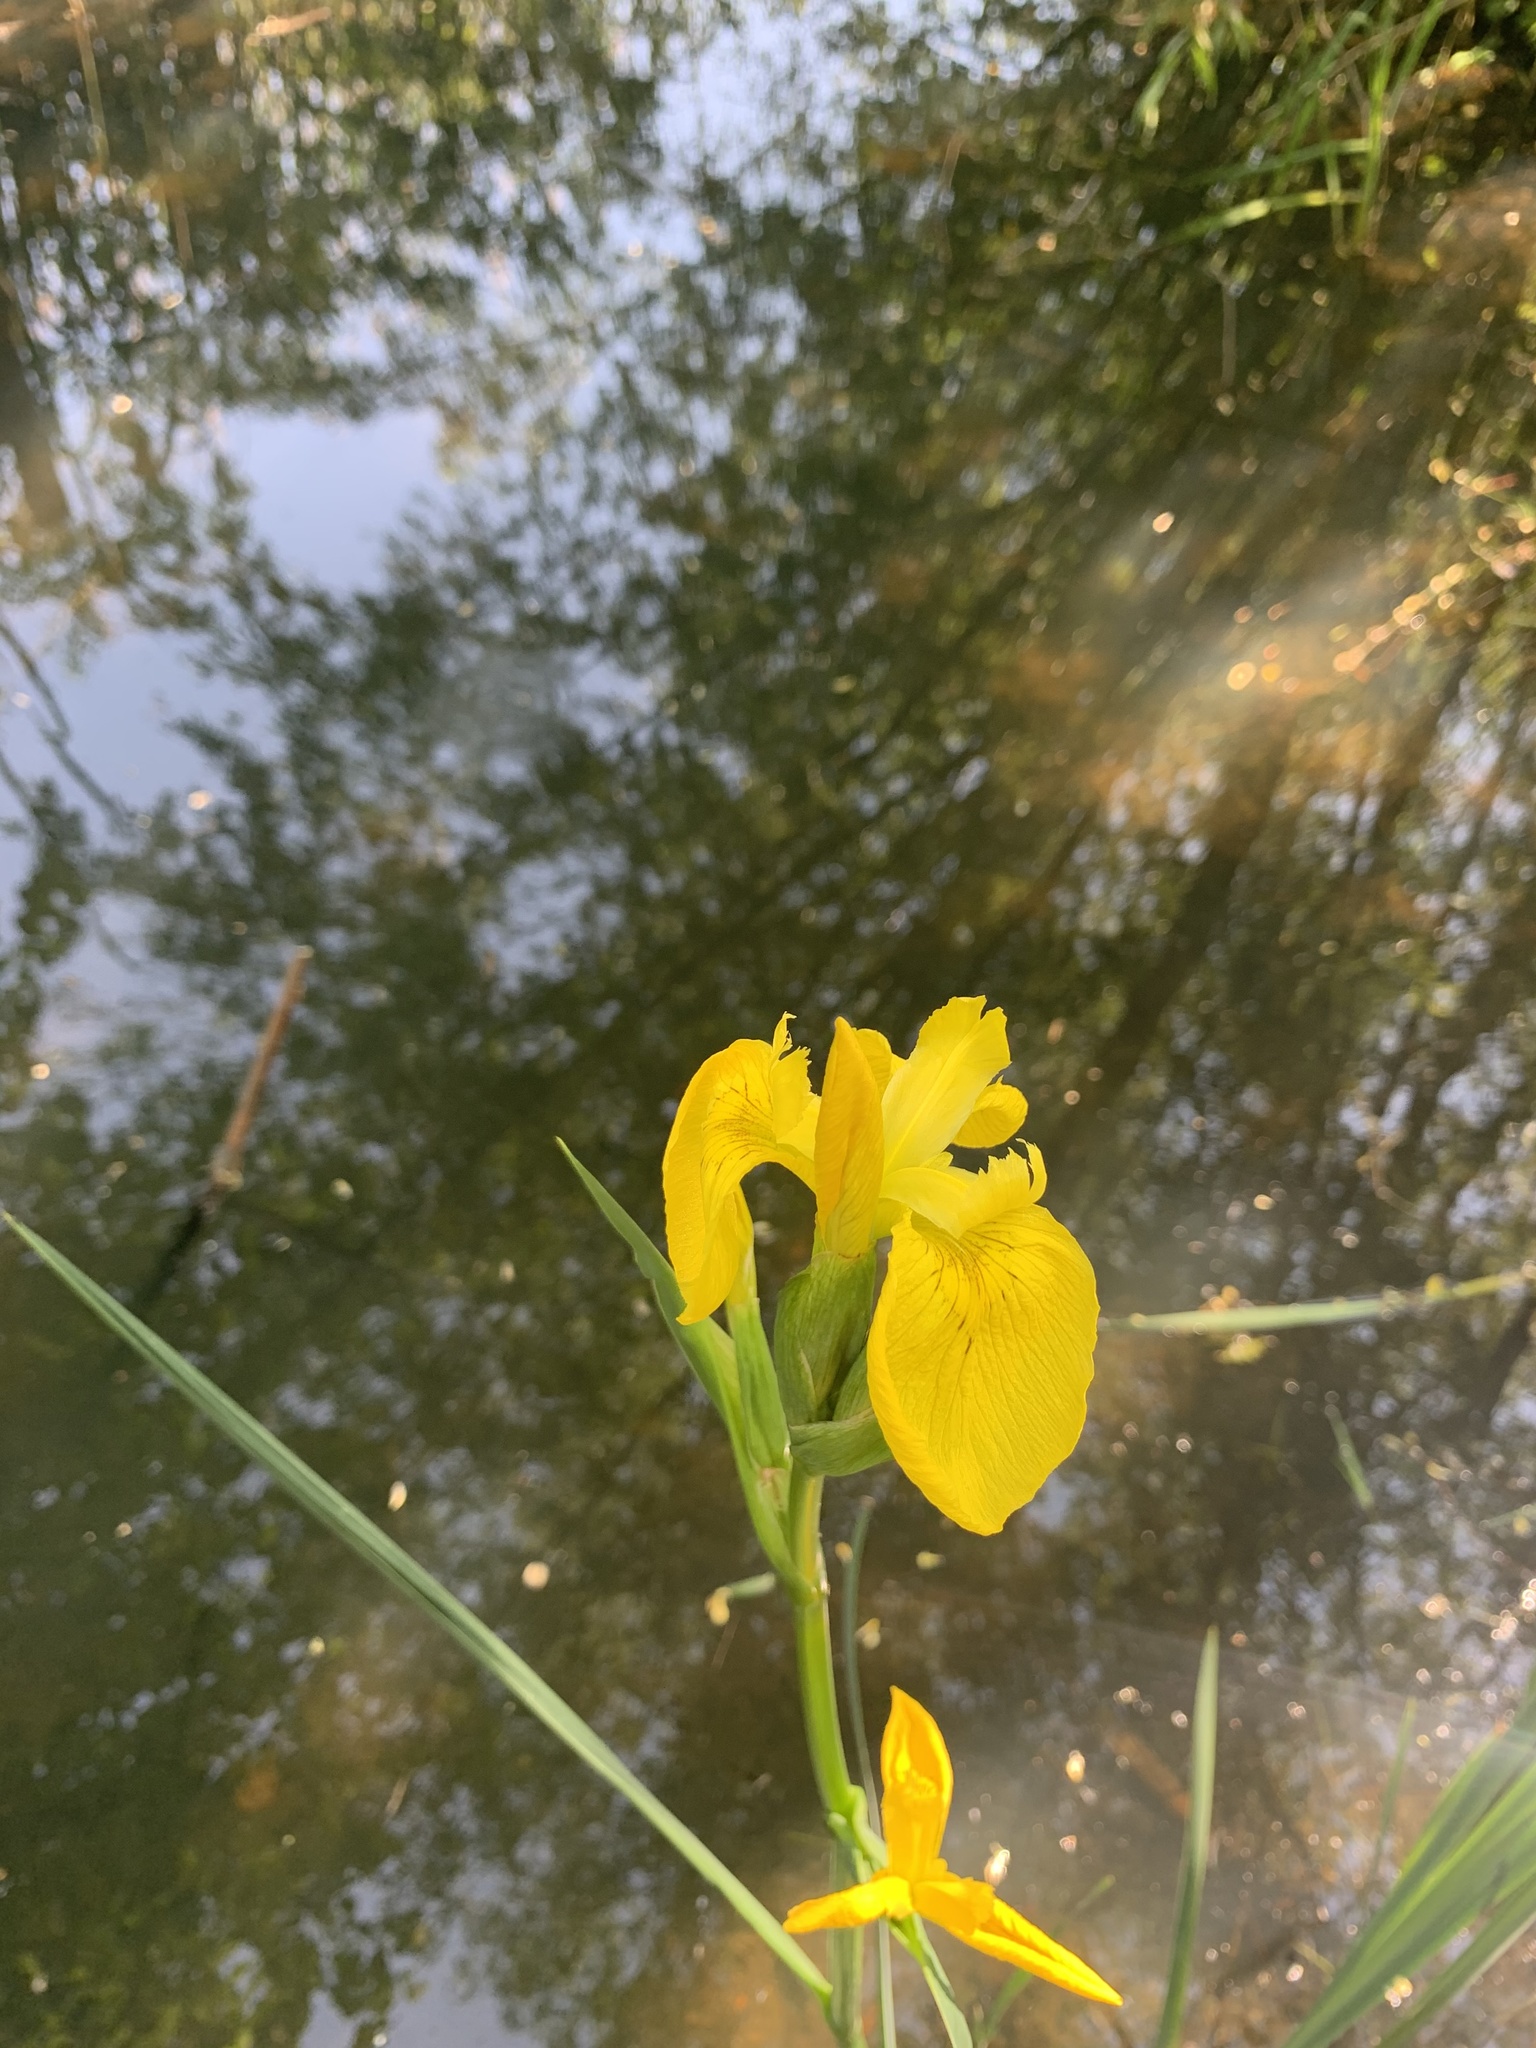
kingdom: Plantae
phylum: Tracheophyta
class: Liliopsida
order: Asparagales
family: Iridaceae
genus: Iris
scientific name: Iris pseudacorus
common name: Yellow flag
